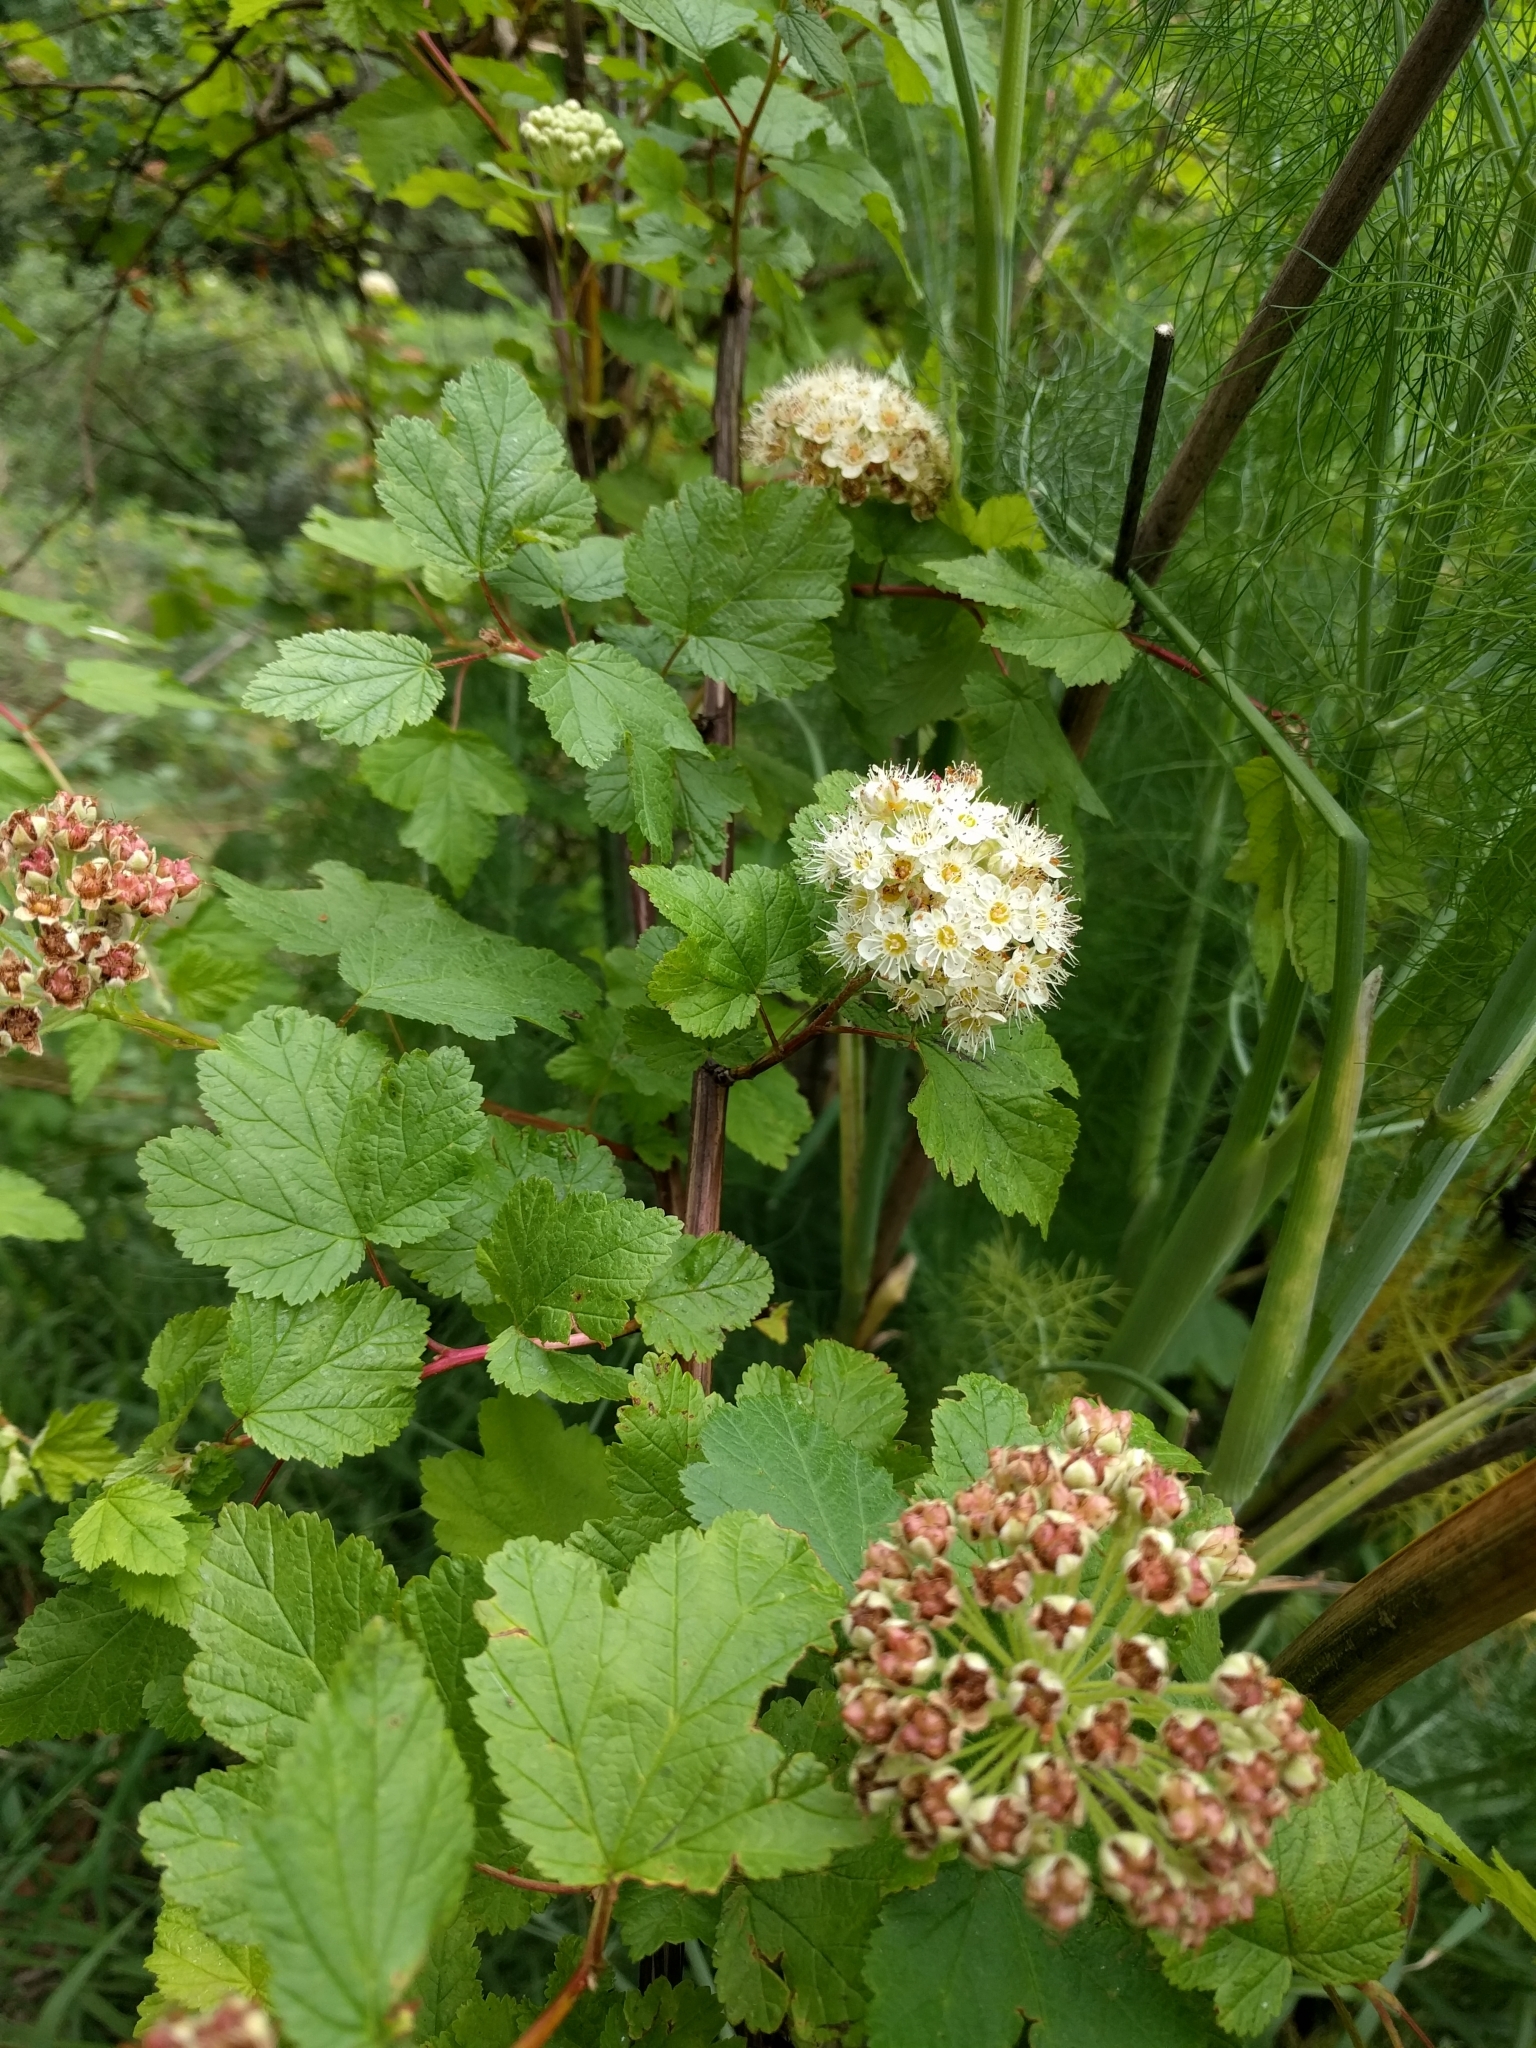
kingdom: Plantae
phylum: Tracheophyta
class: Magnoliopsida
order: Rosales
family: Rosaceae
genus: Physocarpus
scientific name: Physocarpus capitatus
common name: Pacific ninebark
